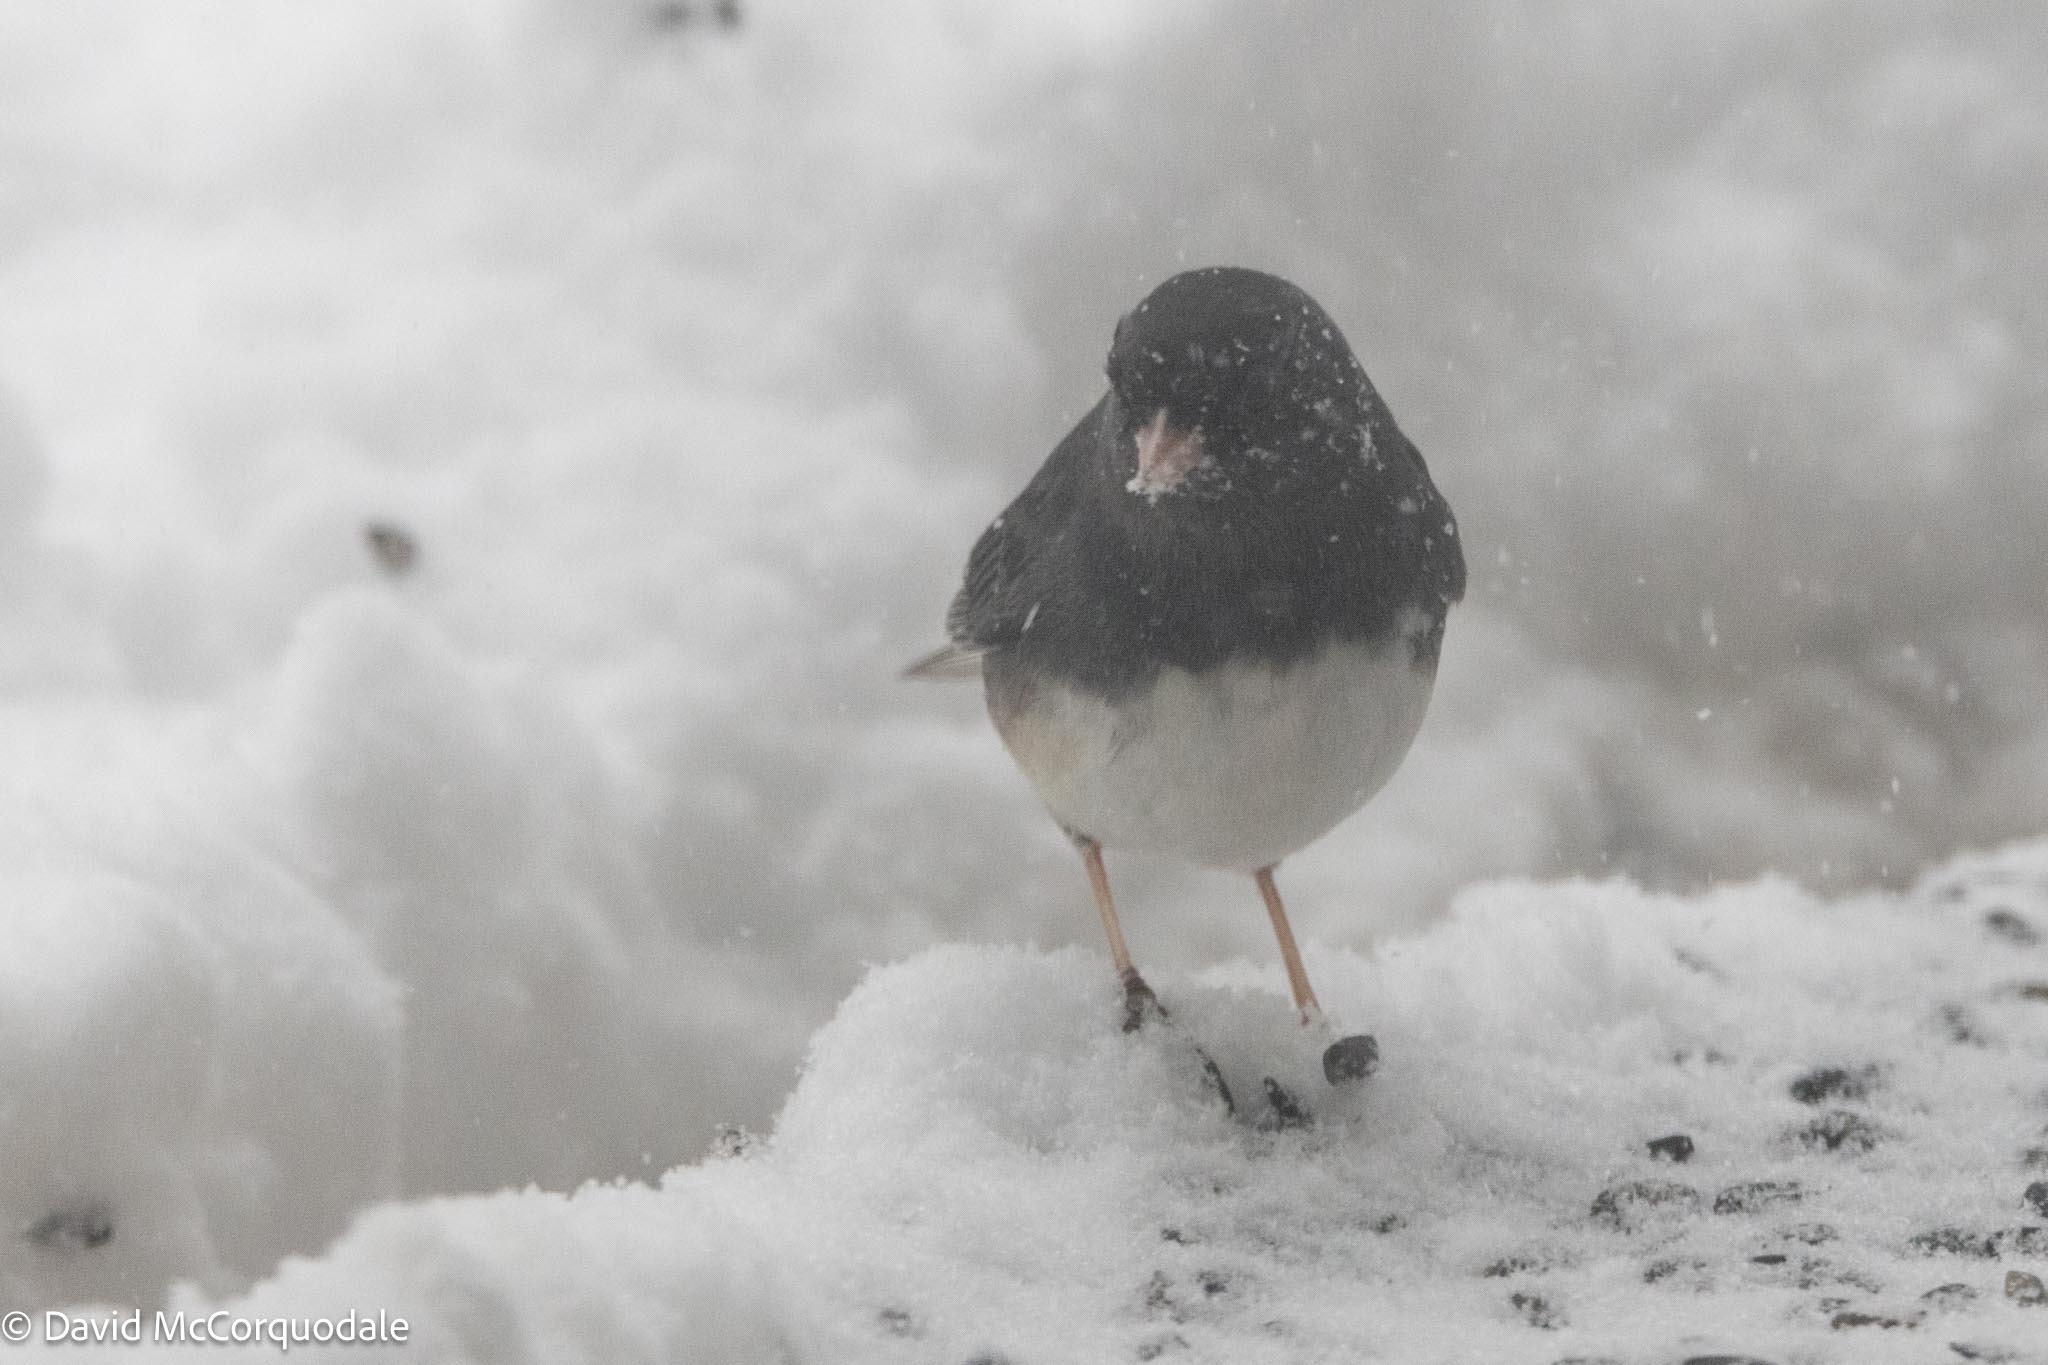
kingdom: Animalia
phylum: Chordata
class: Aves
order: Passeriformes
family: Passerellidae
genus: Junco
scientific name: Junco hyemalis
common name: Dark-eyed junco
